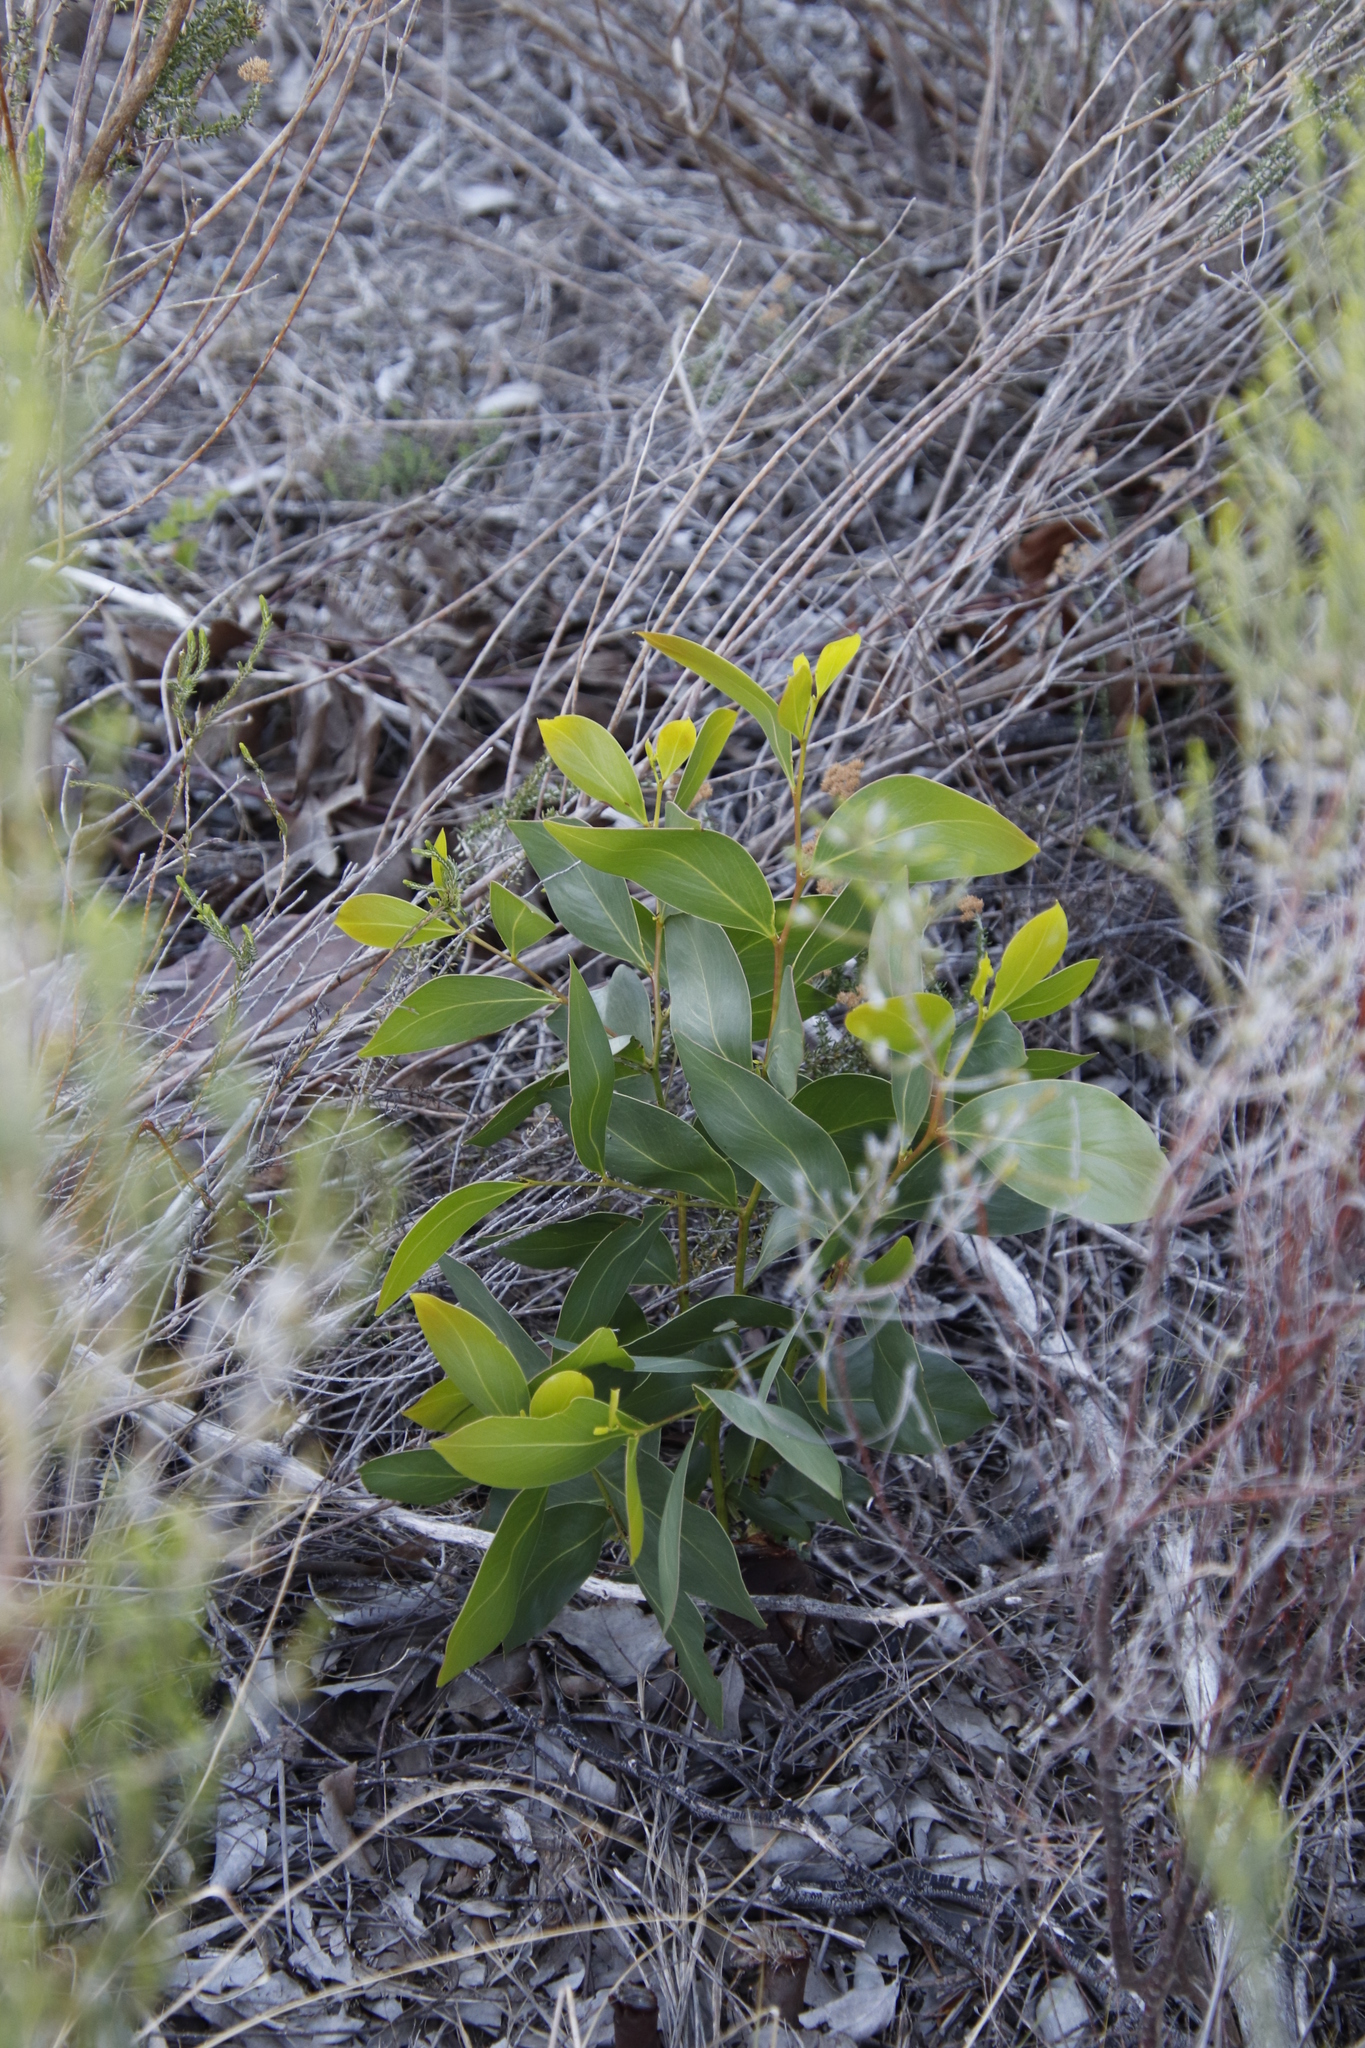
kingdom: Plantae
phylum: Tracheophyta
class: Magnoliopsida
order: Fabales
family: Fabaceae
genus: Acacia
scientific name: Acacia pycnantha
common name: Golden wattle
